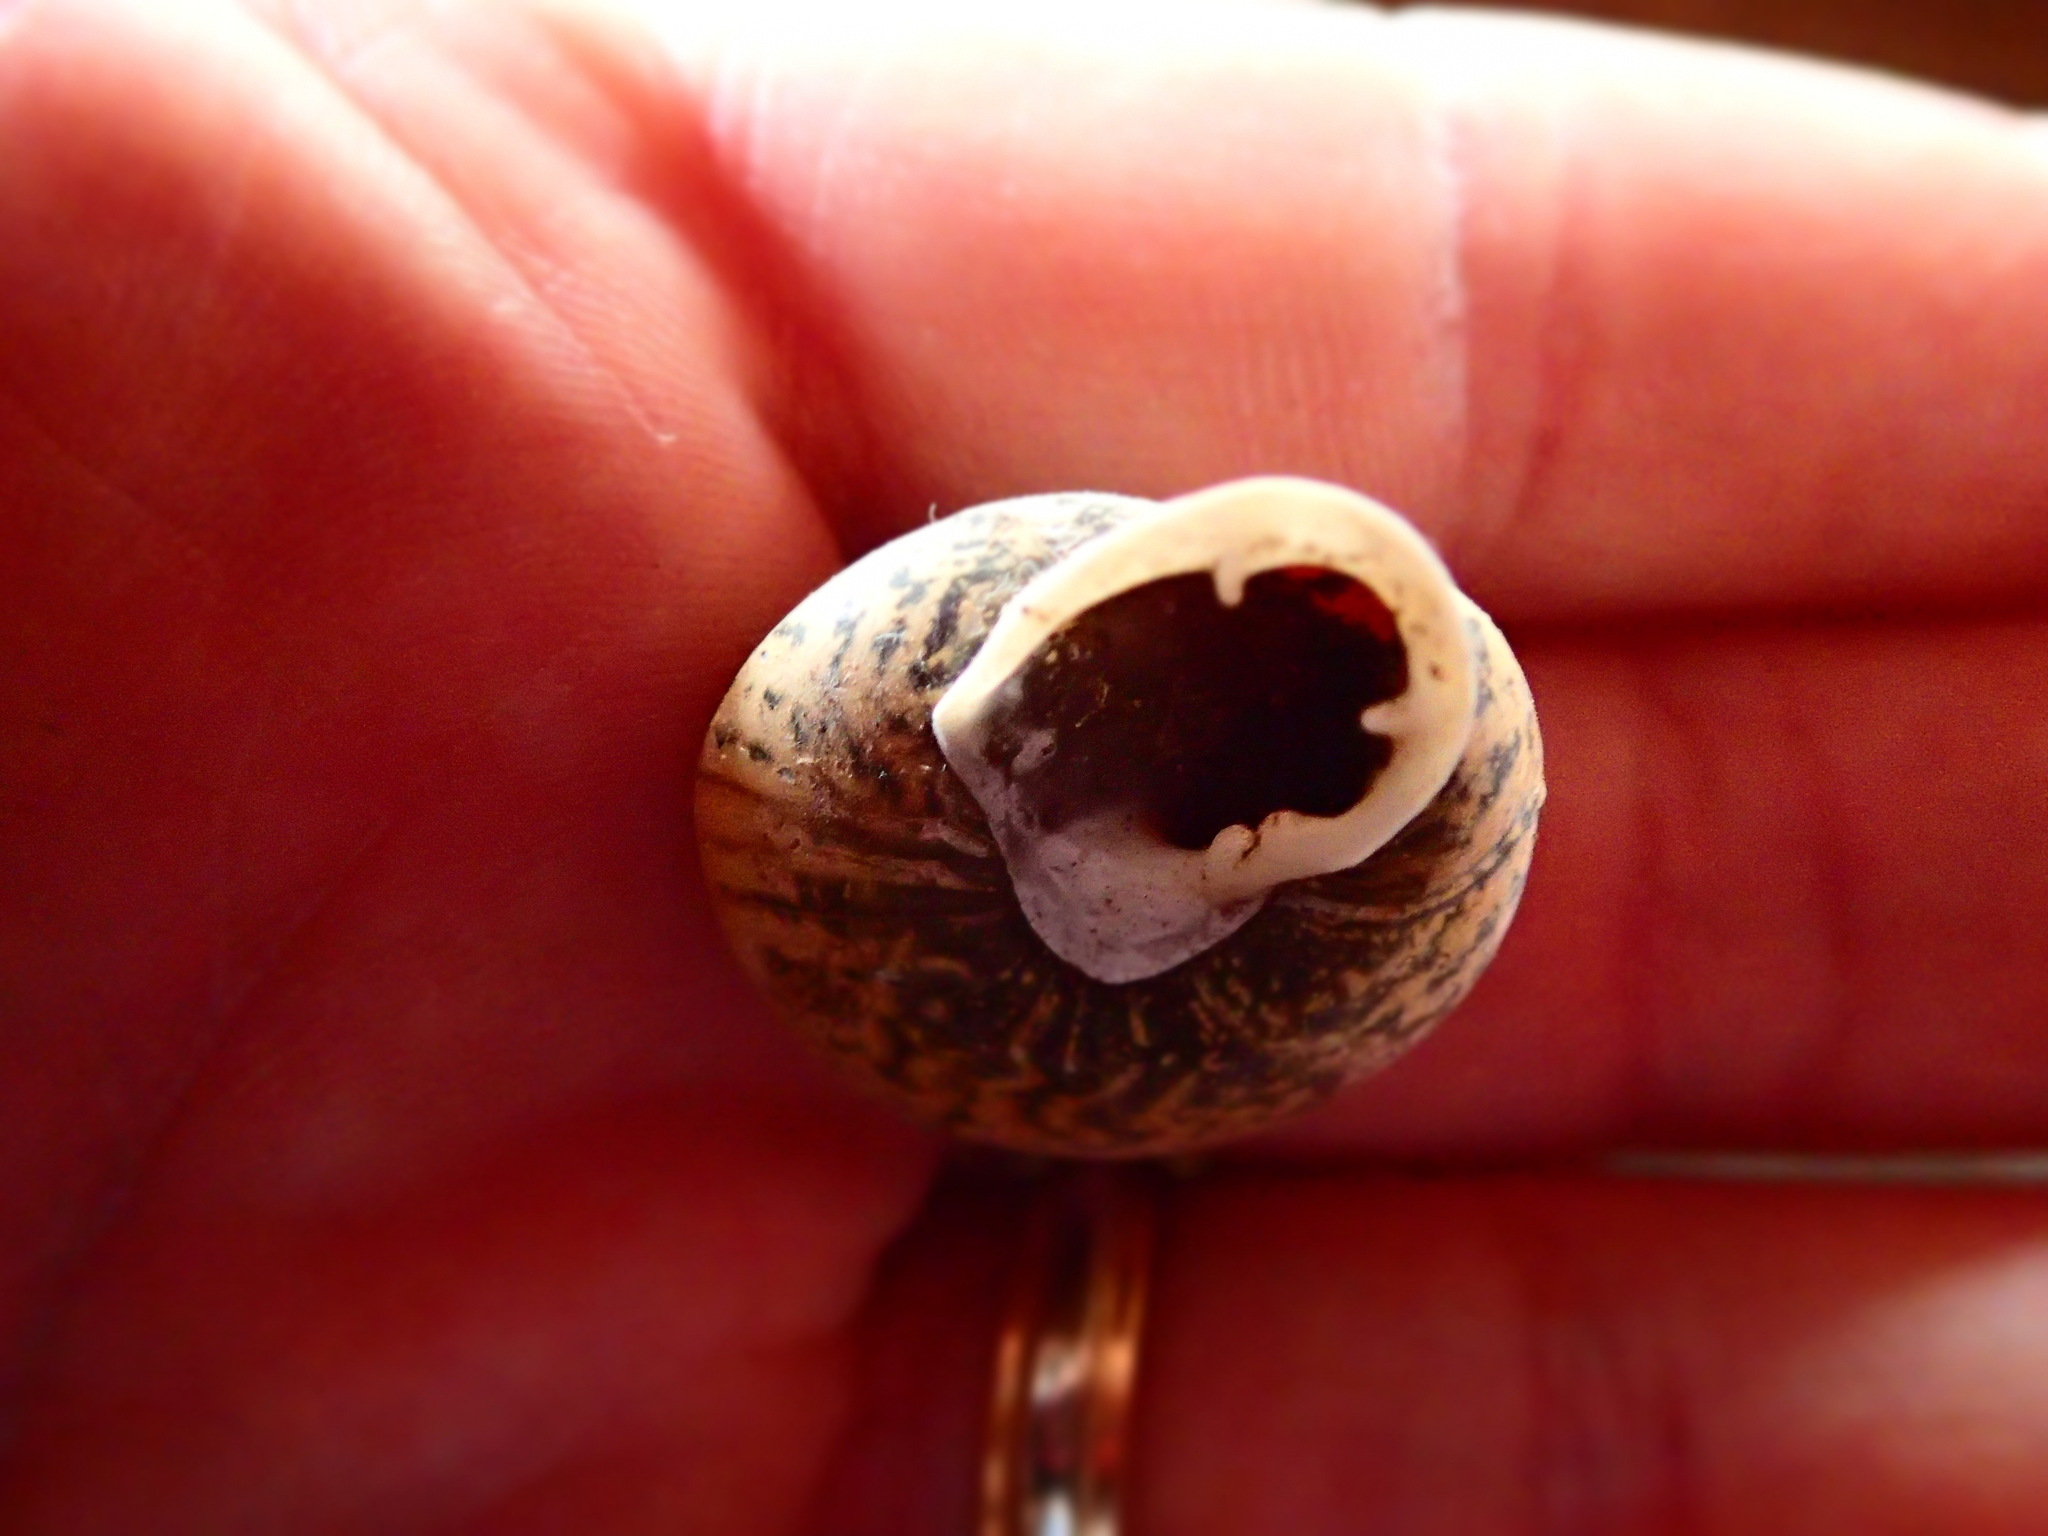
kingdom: Animalia
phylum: Mollusca
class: Gastropoda
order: Stylommatophora
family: Labyrinthidae
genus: Isomeria
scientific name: Isomeria bourcieri
